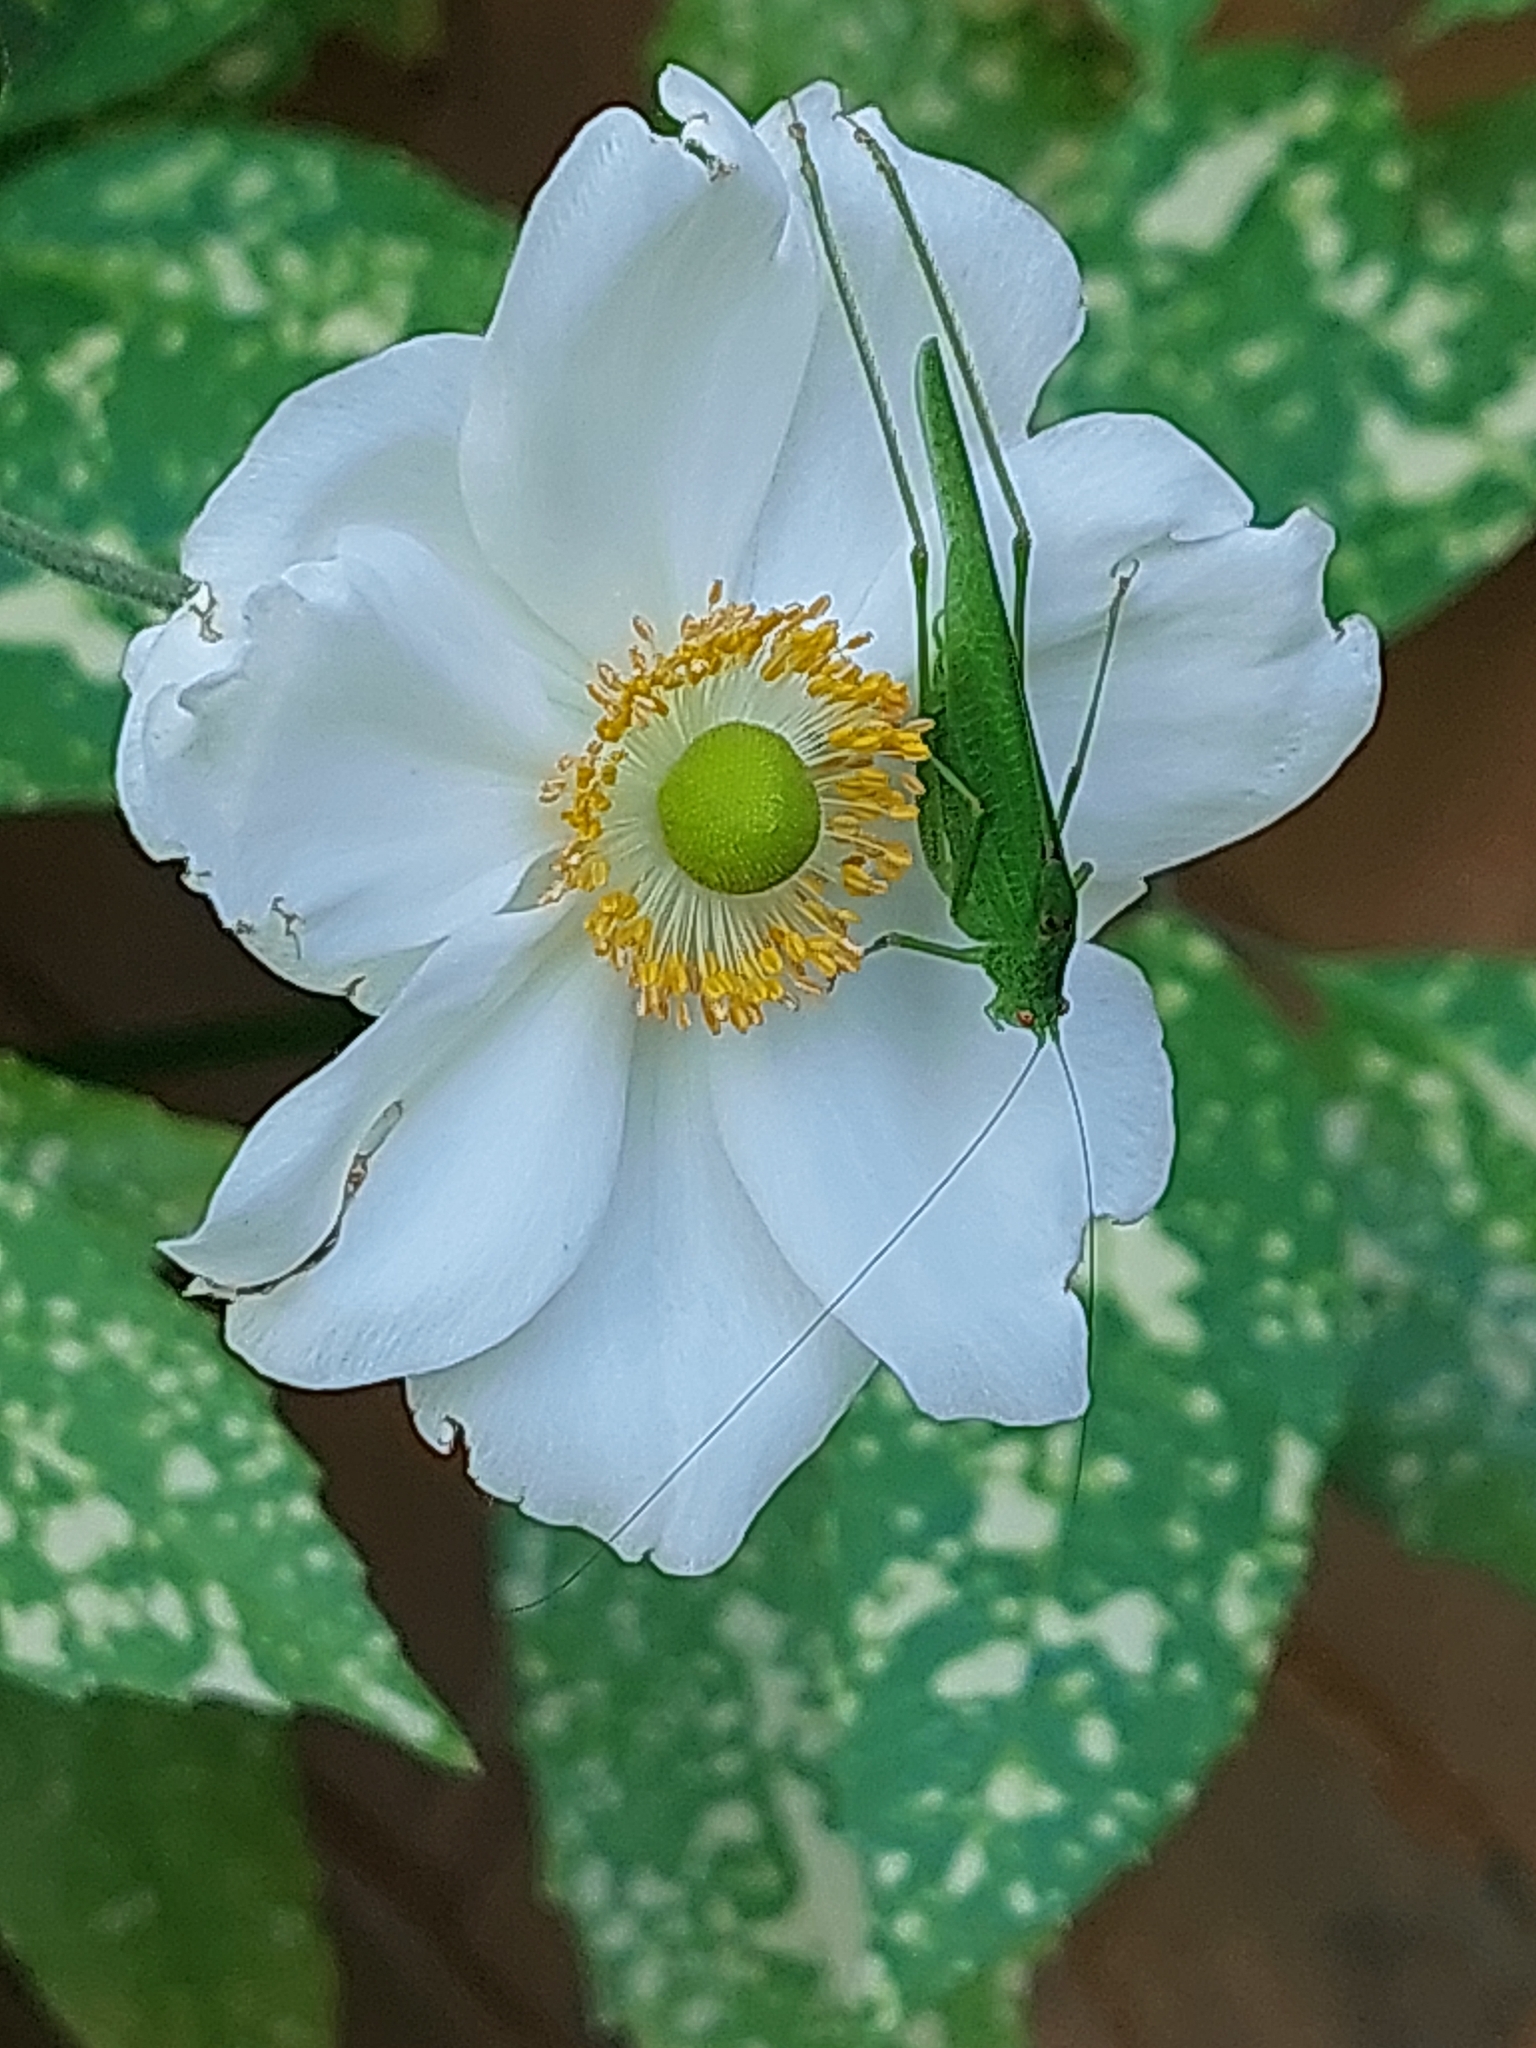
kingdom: Animalia
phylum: Arthropoda
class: Insecta
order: Orthoptera
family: Tettigoniidae
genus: Phaneroptera
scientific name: Phaneroptera nana
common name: Southern sickle bush-cricket
